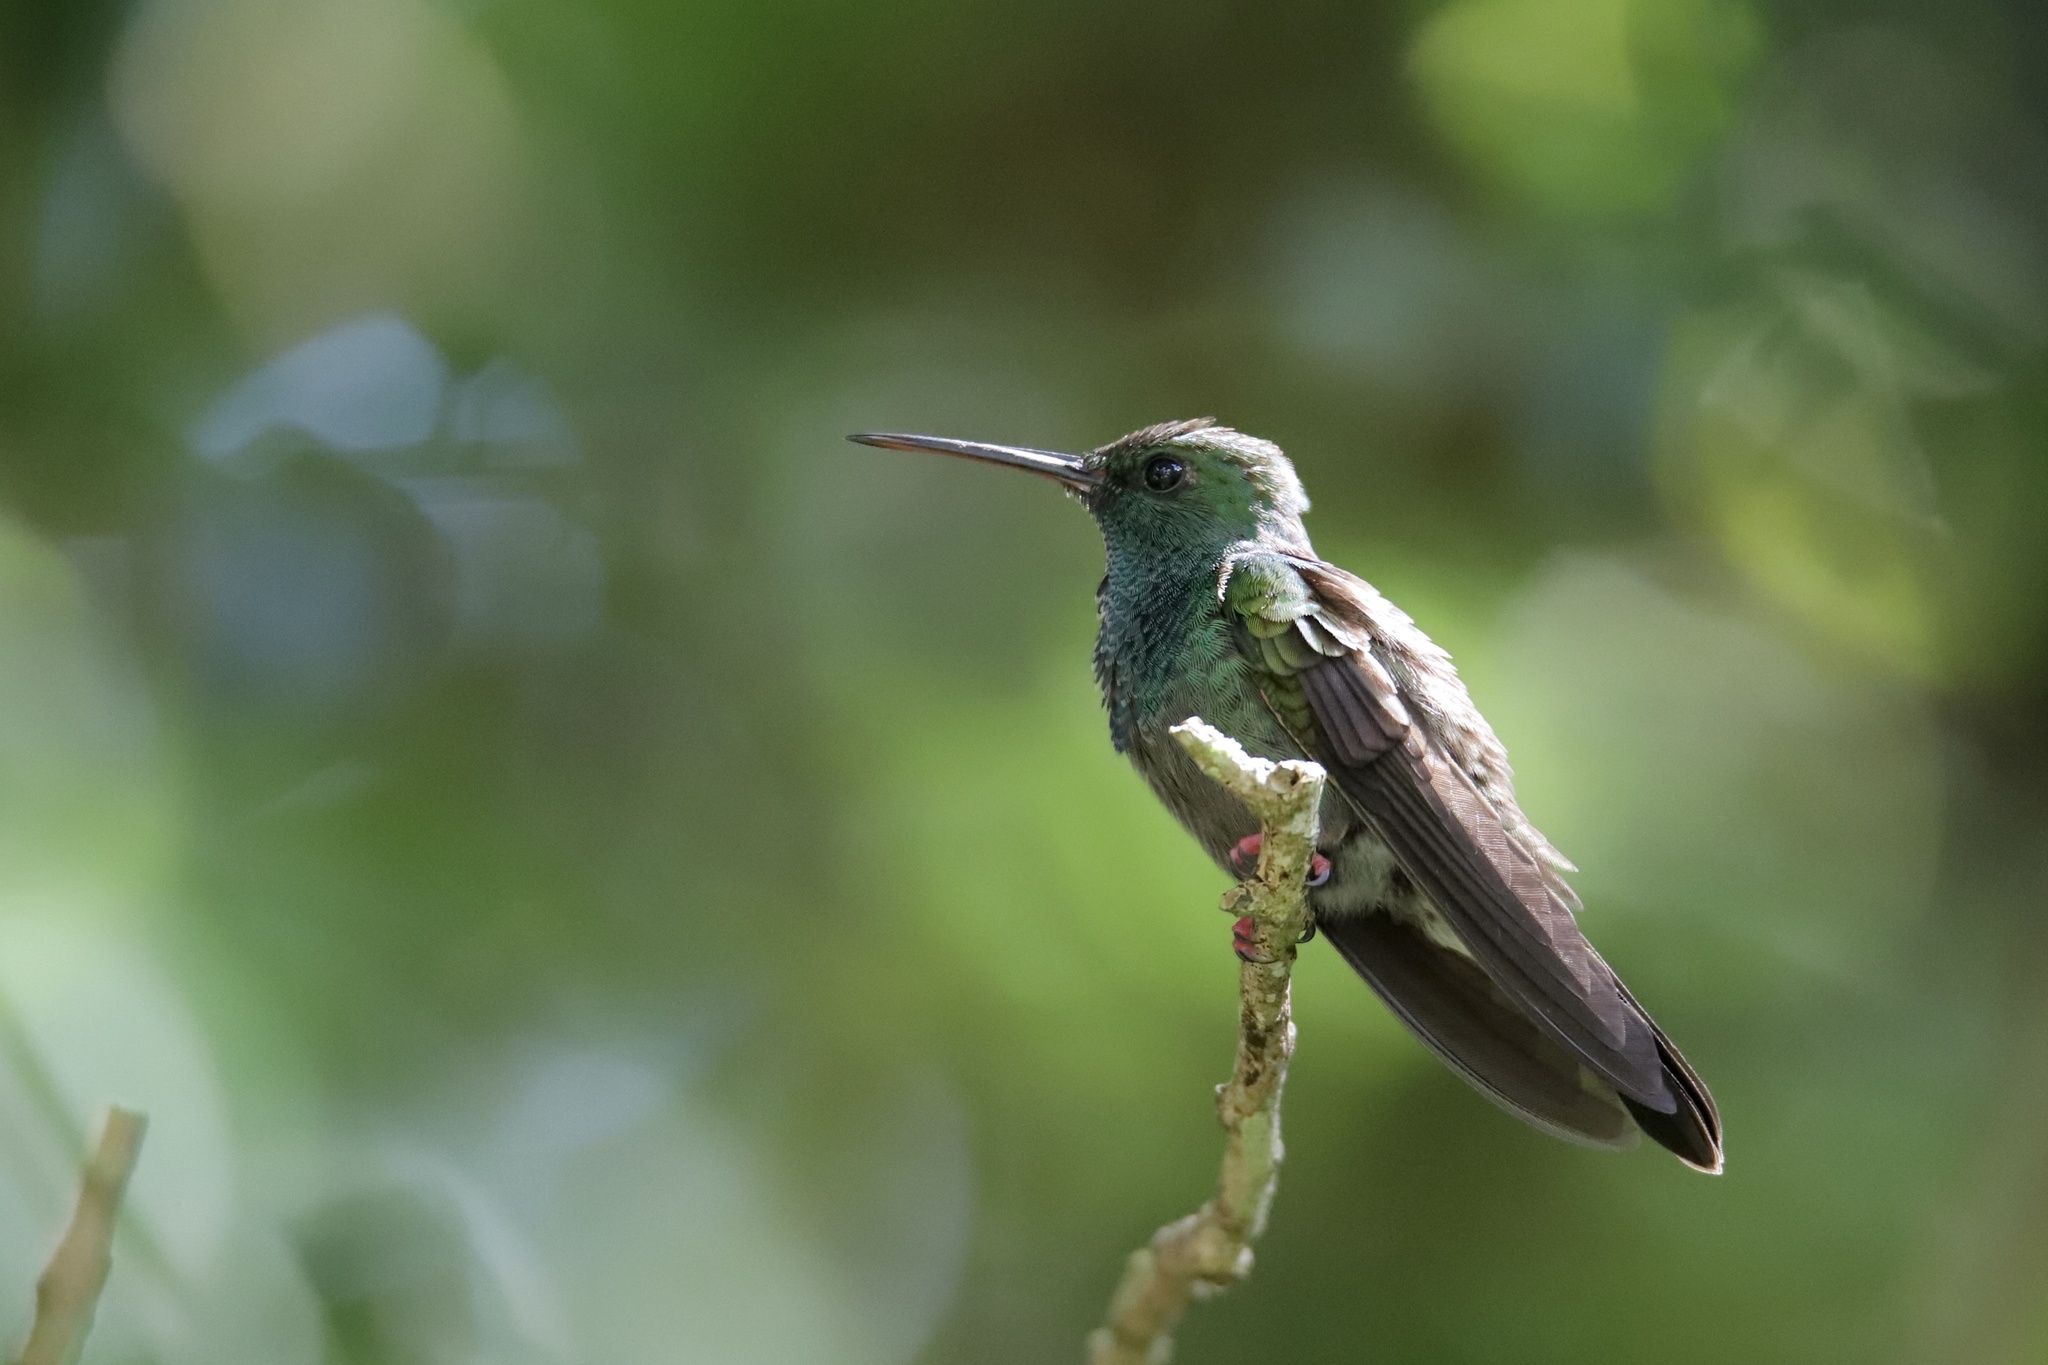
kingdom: Animalia
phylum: Chordata
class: Aves
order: Apodiformes
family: Trochilidae
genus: Chalybura
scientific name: Chalybura urochrysia
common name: Bronze-tailed plumeleteer
